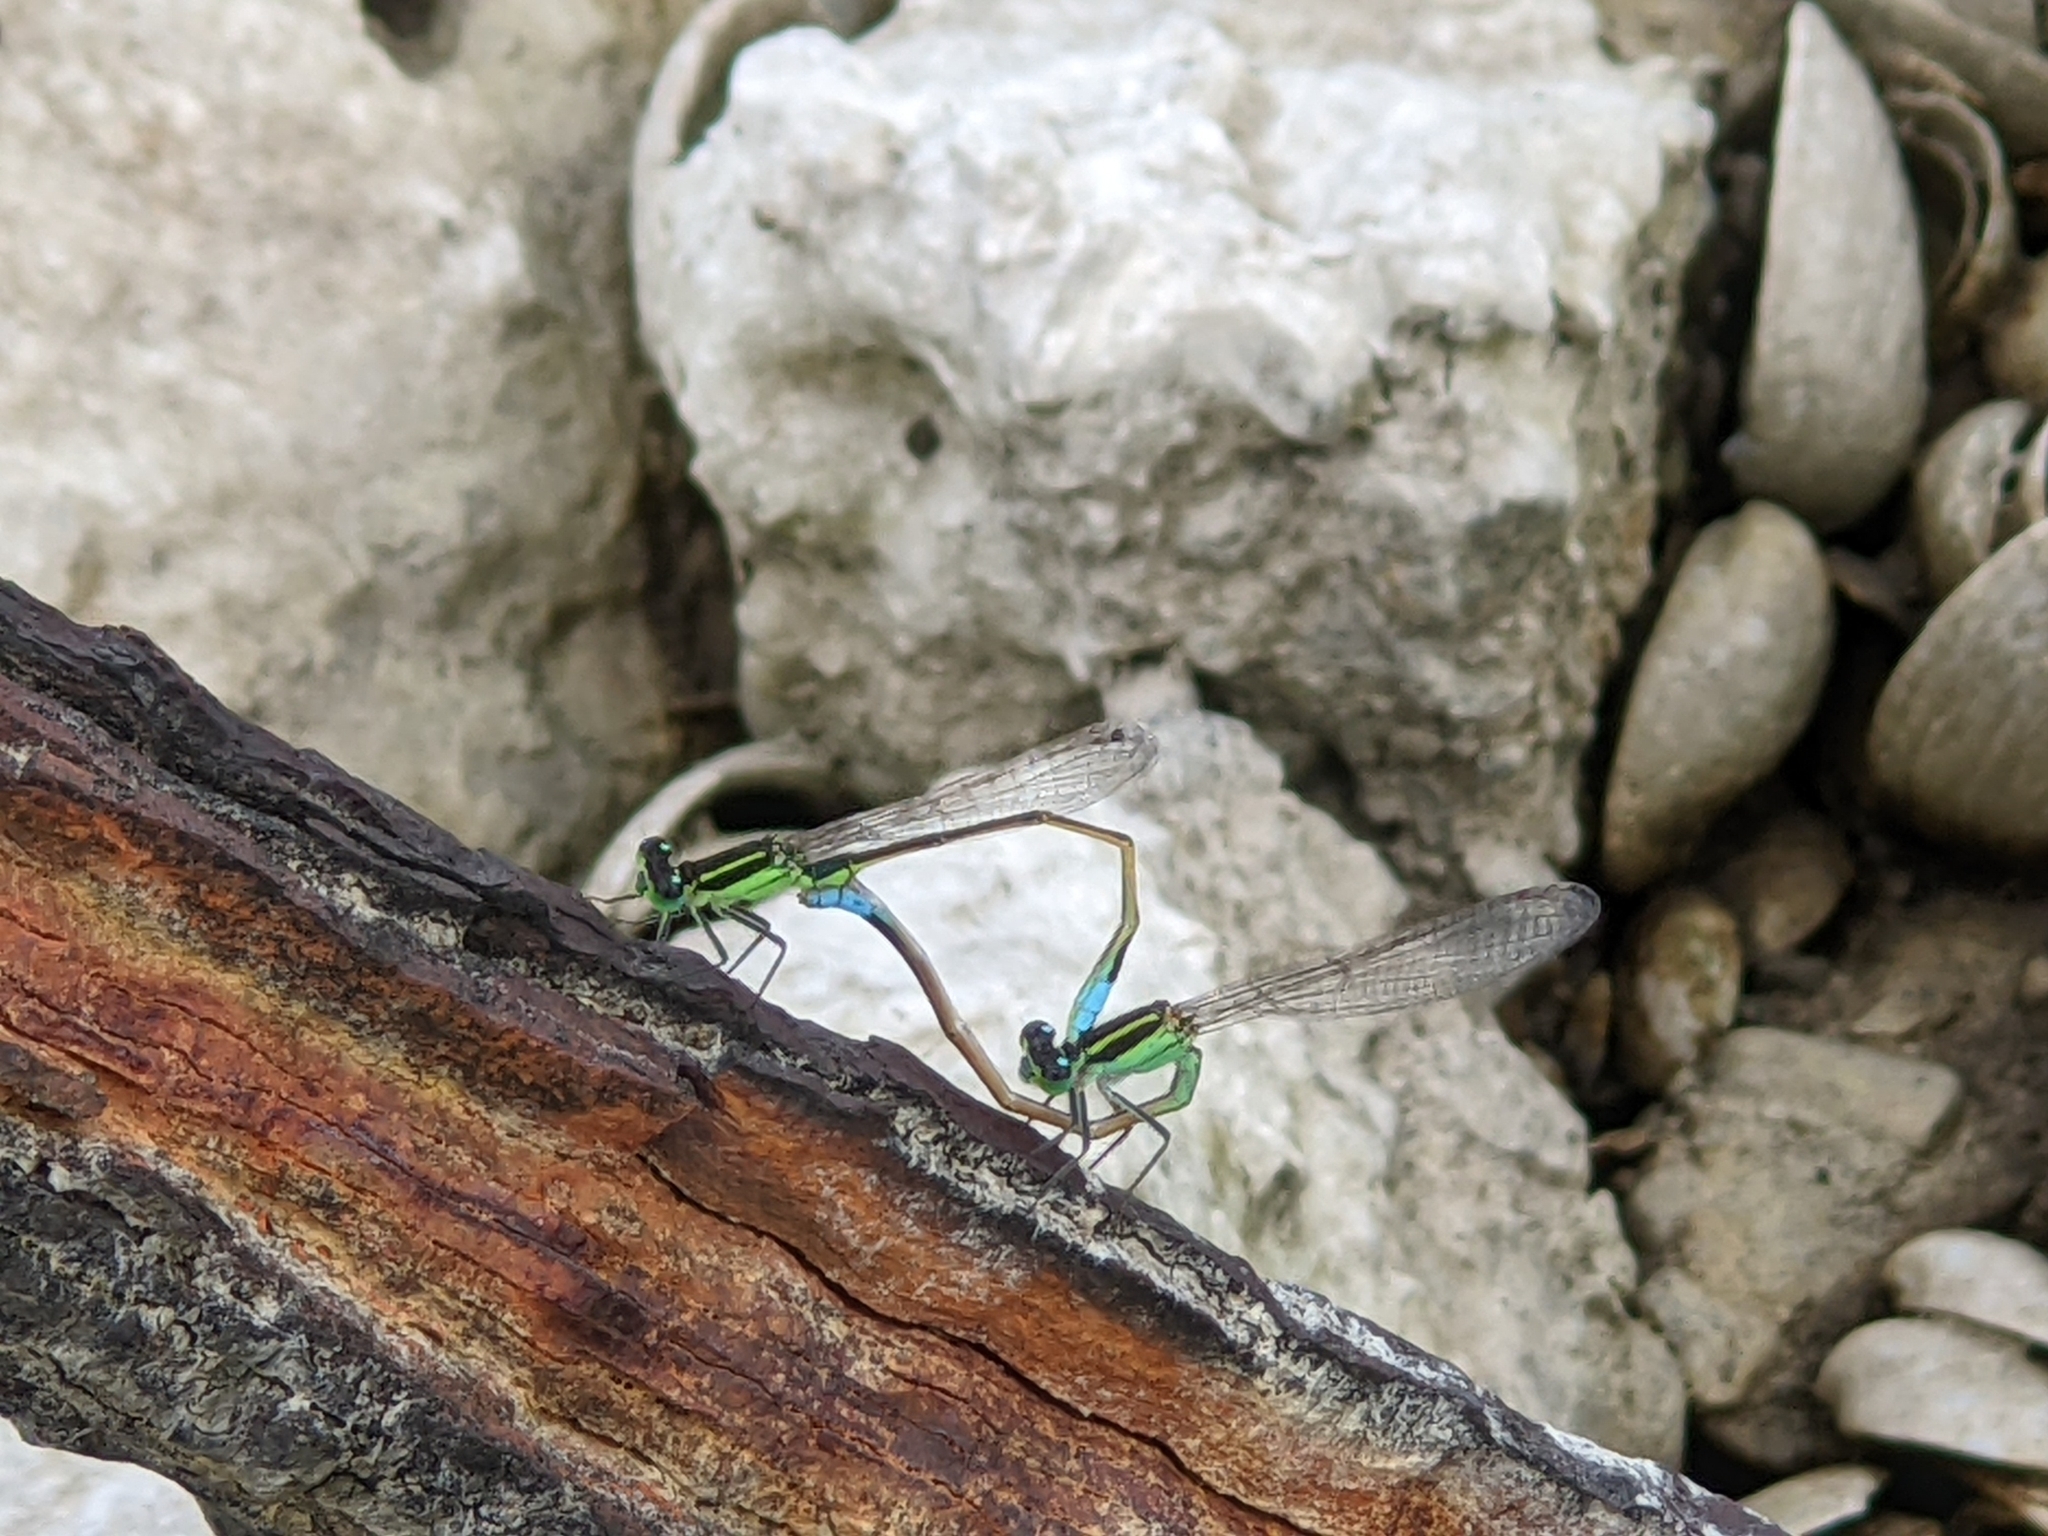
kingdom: Animalia
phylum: Arthropoda
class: Insecta
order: Odonata
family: Coenagrionidae
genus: Ischnura
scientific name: Ischnura ramburii
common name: Rambur's forktail
